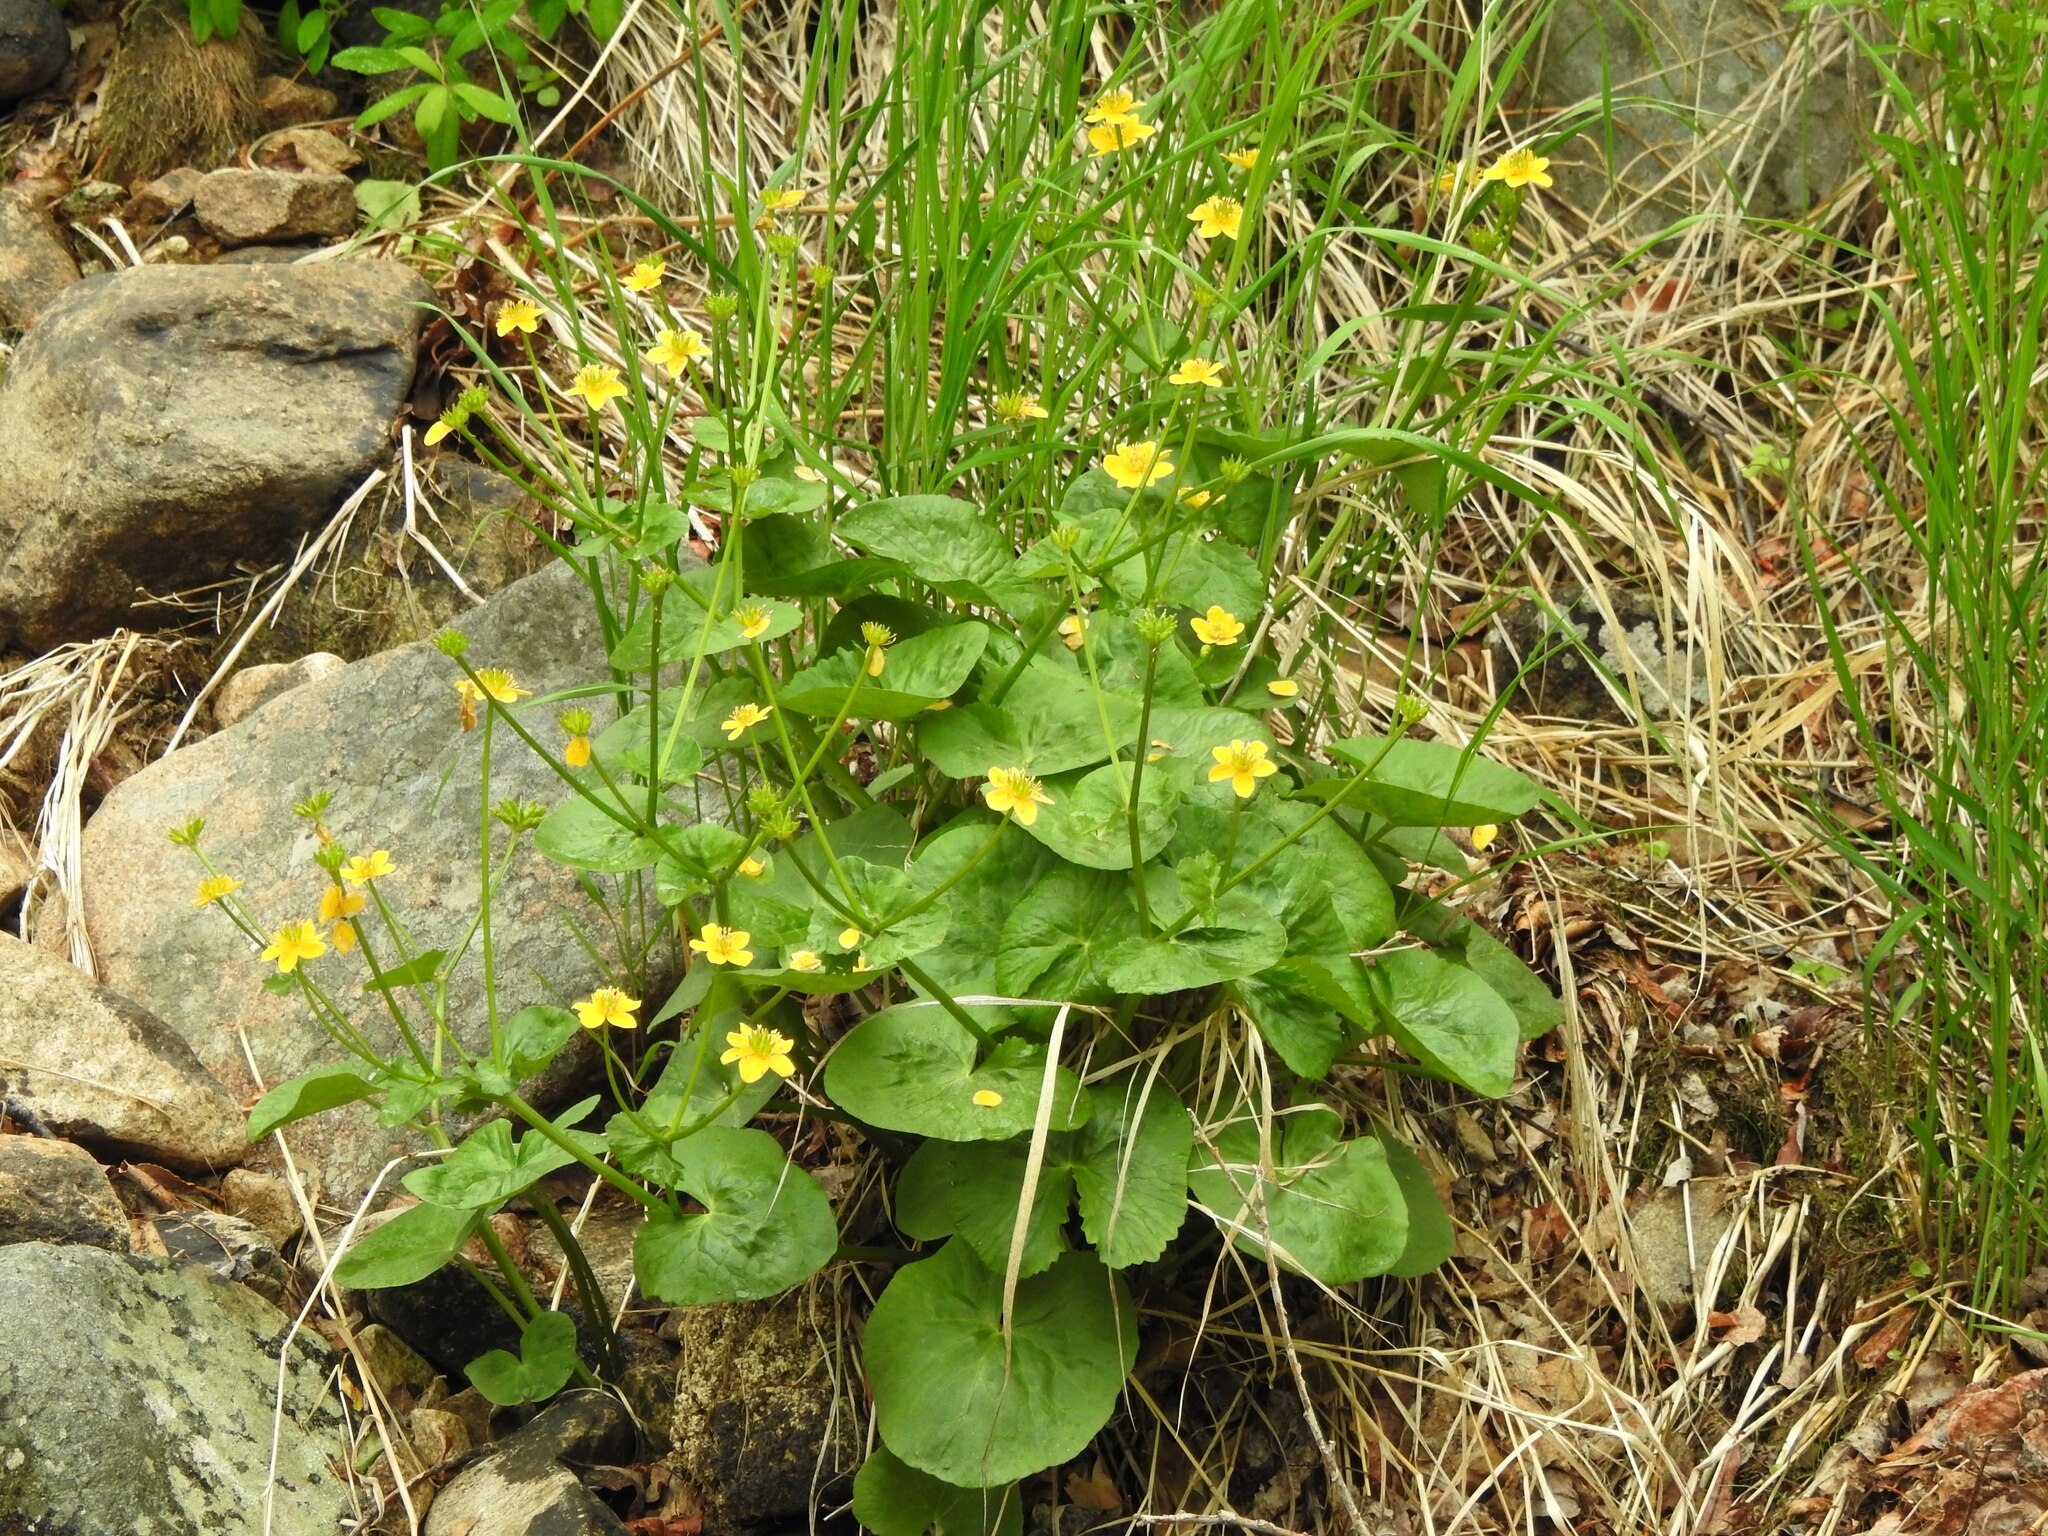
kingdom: Plantae
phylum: Tracheophyta
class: Magnoliopsida
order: Ranunculales
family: Ranunculaceae
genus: Caltha
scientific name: Caltha palustris
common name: Marsh marigold
